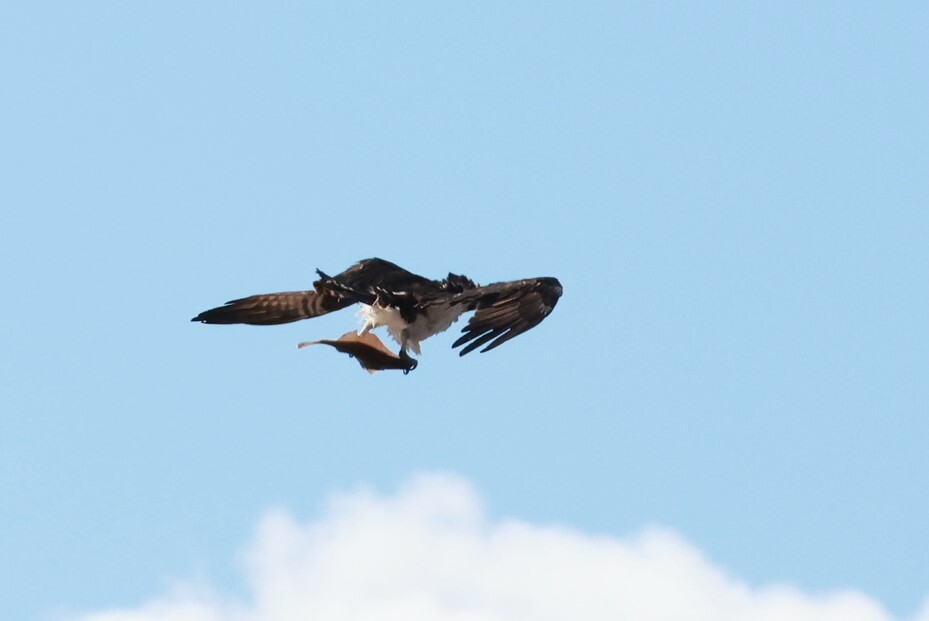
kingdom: Animalia
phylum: Chordata
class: Aves
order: Accipitriformes
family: Pandionidae
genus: Pandion
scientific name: Pandion haliaetus
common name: Osprey
